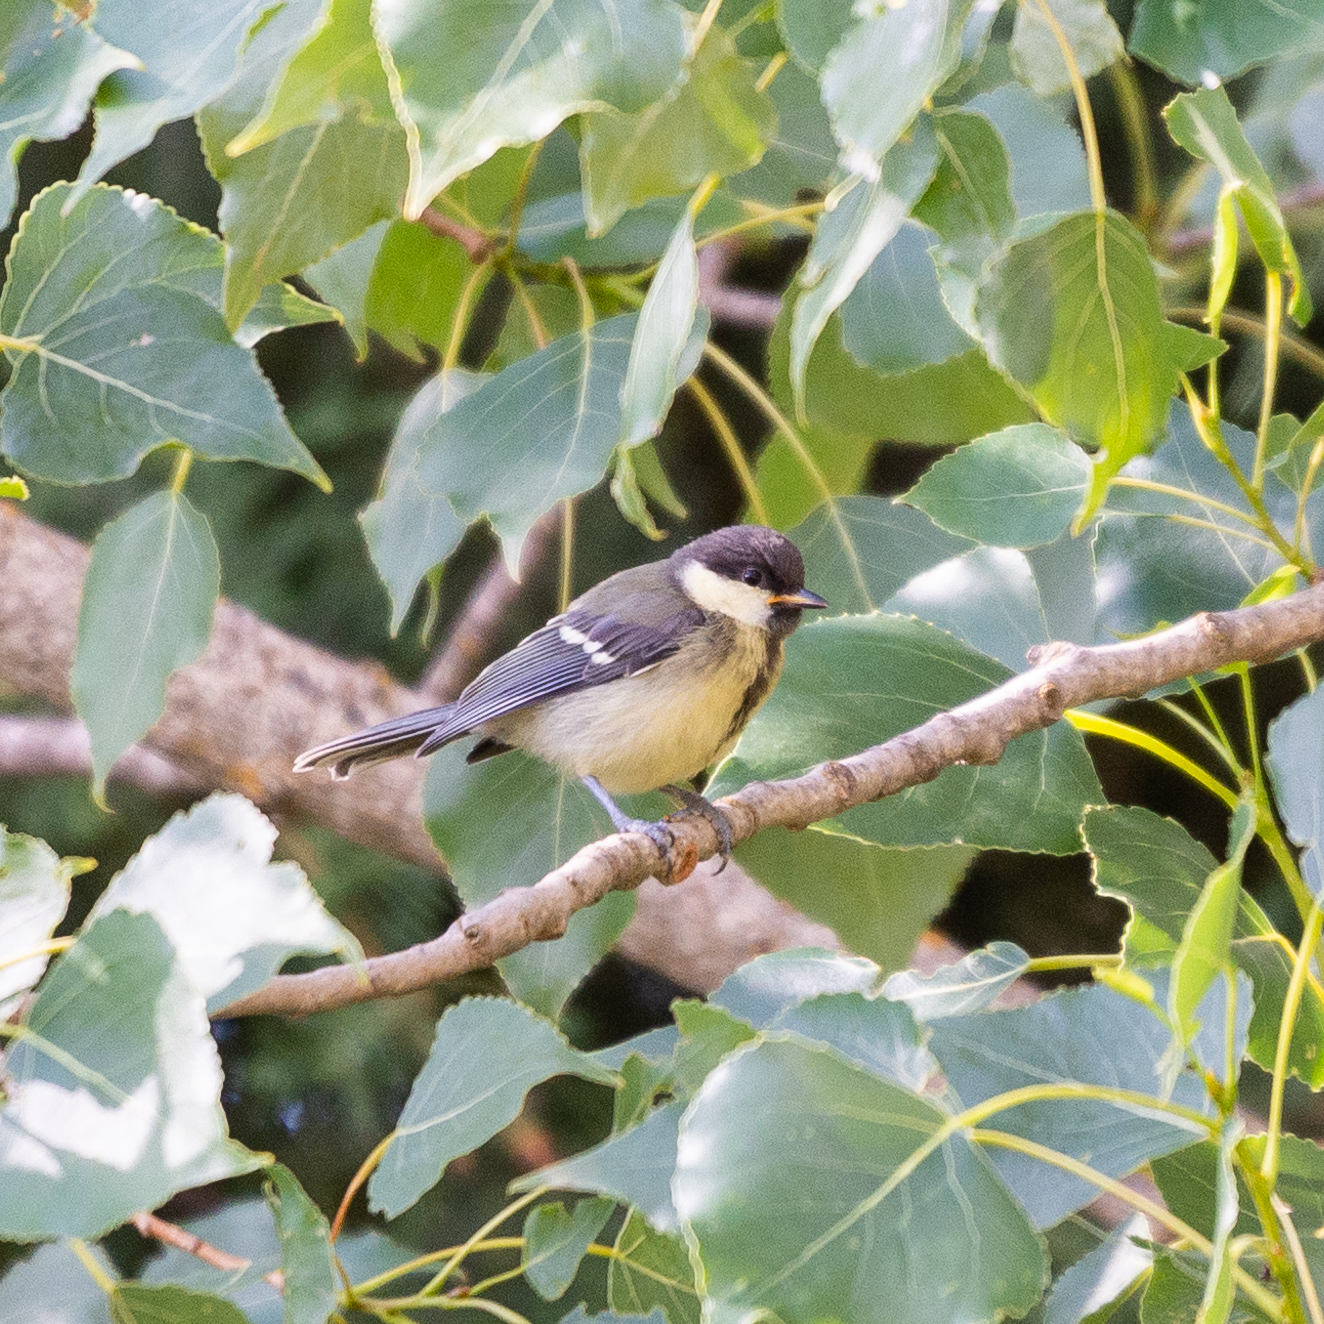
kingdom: Animalia
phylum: Chordata
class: Aves
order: Passeriformes
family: Paridae
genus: Parus
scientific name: Parus major
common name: Great tit
